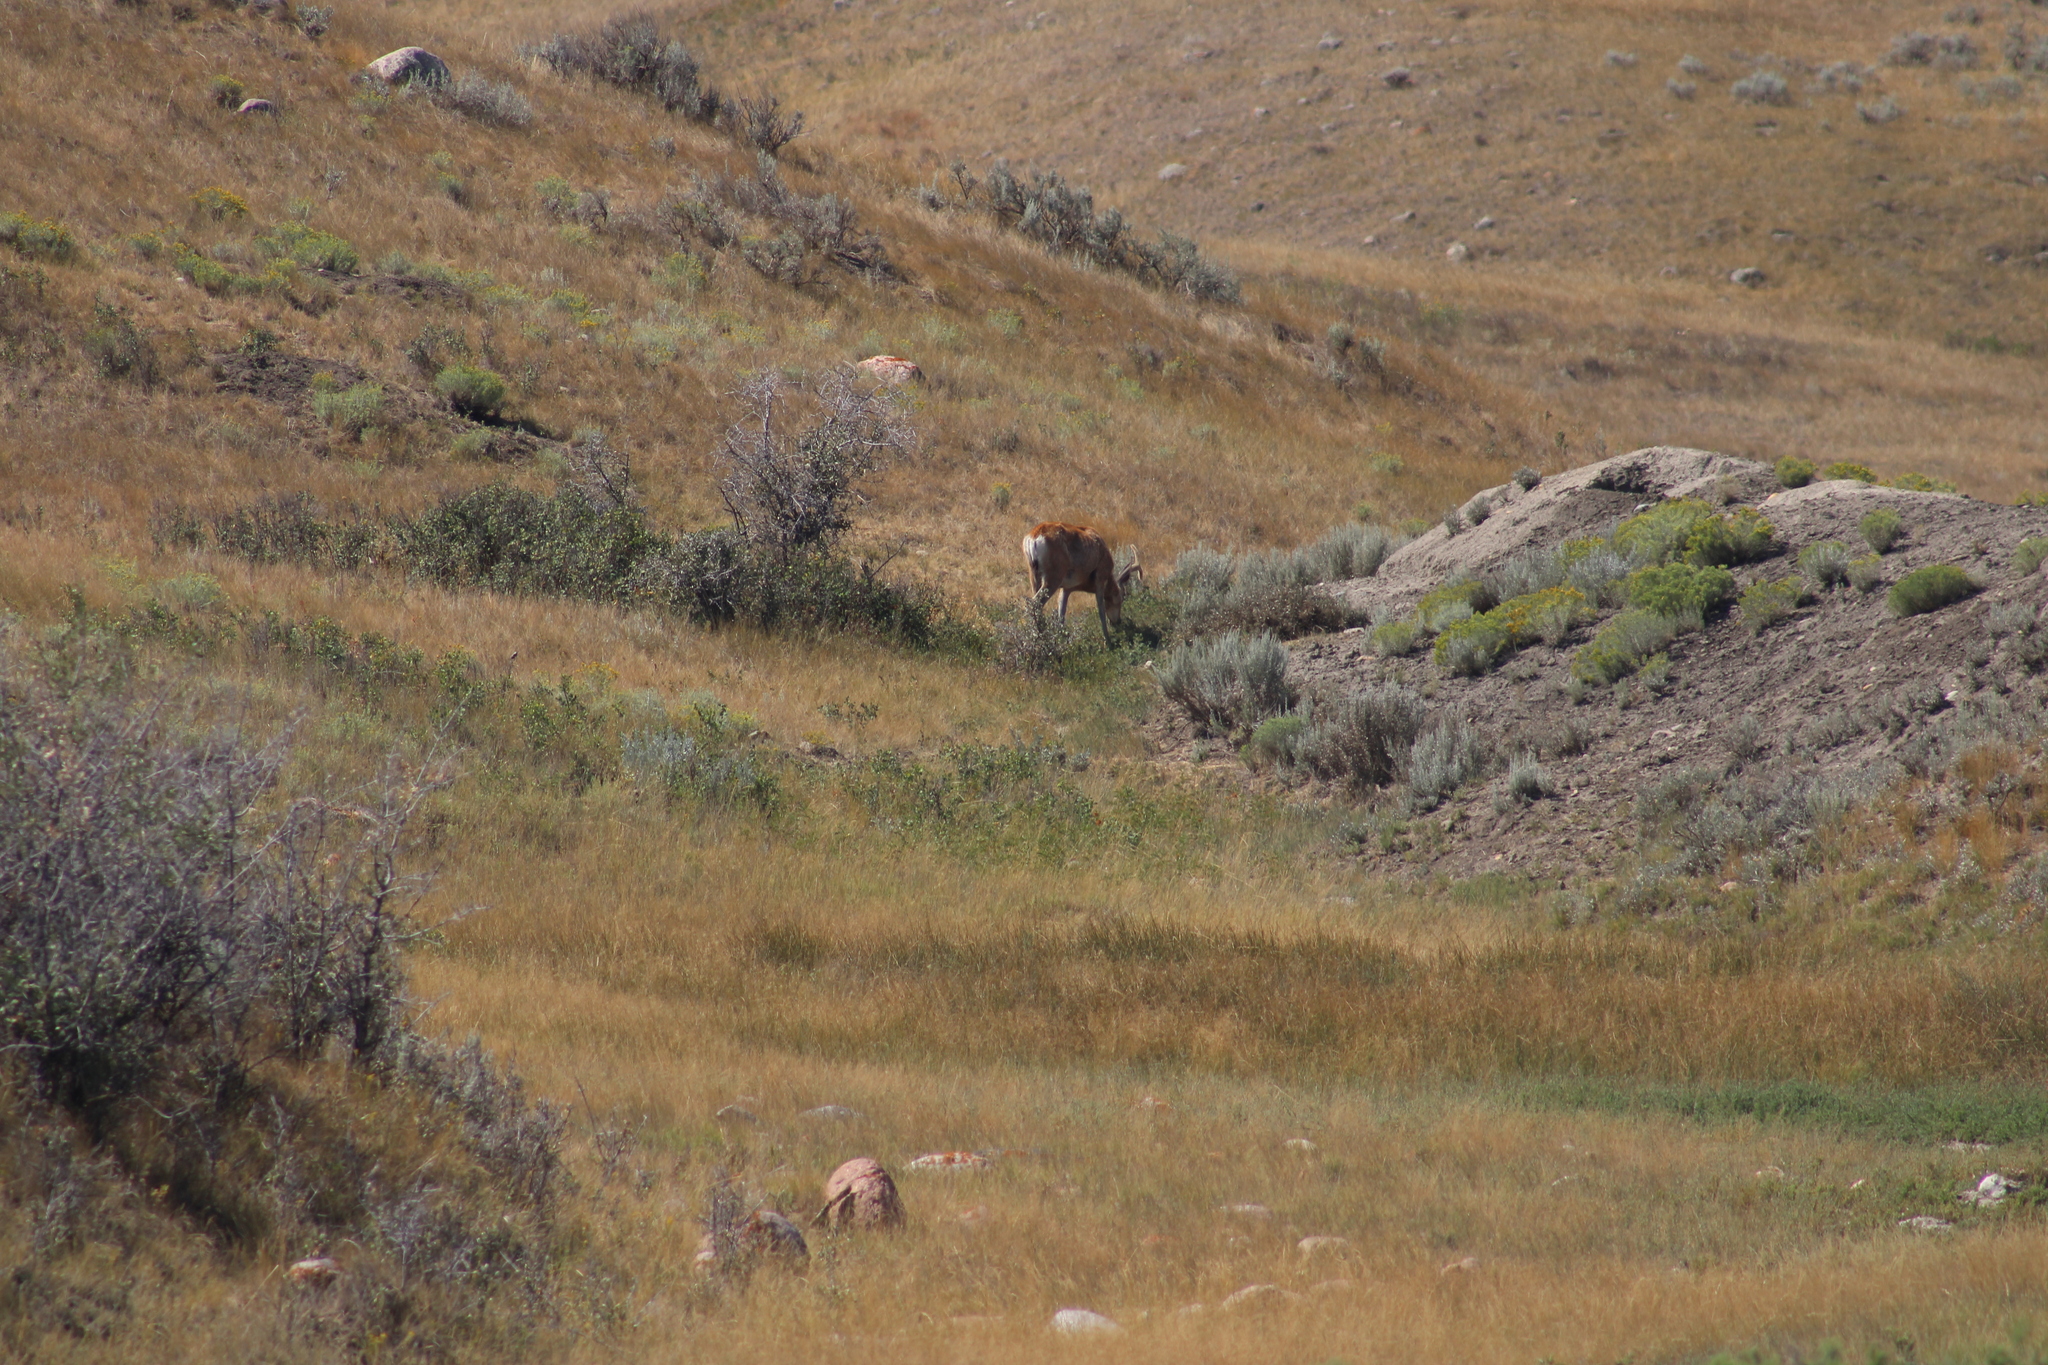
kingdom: Animalia
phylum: Chordata
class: Mammalia
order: Artiodactyla
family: Cervidae
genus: Odocoileus
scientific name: Odocoileus hemionus
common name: Mule deer
